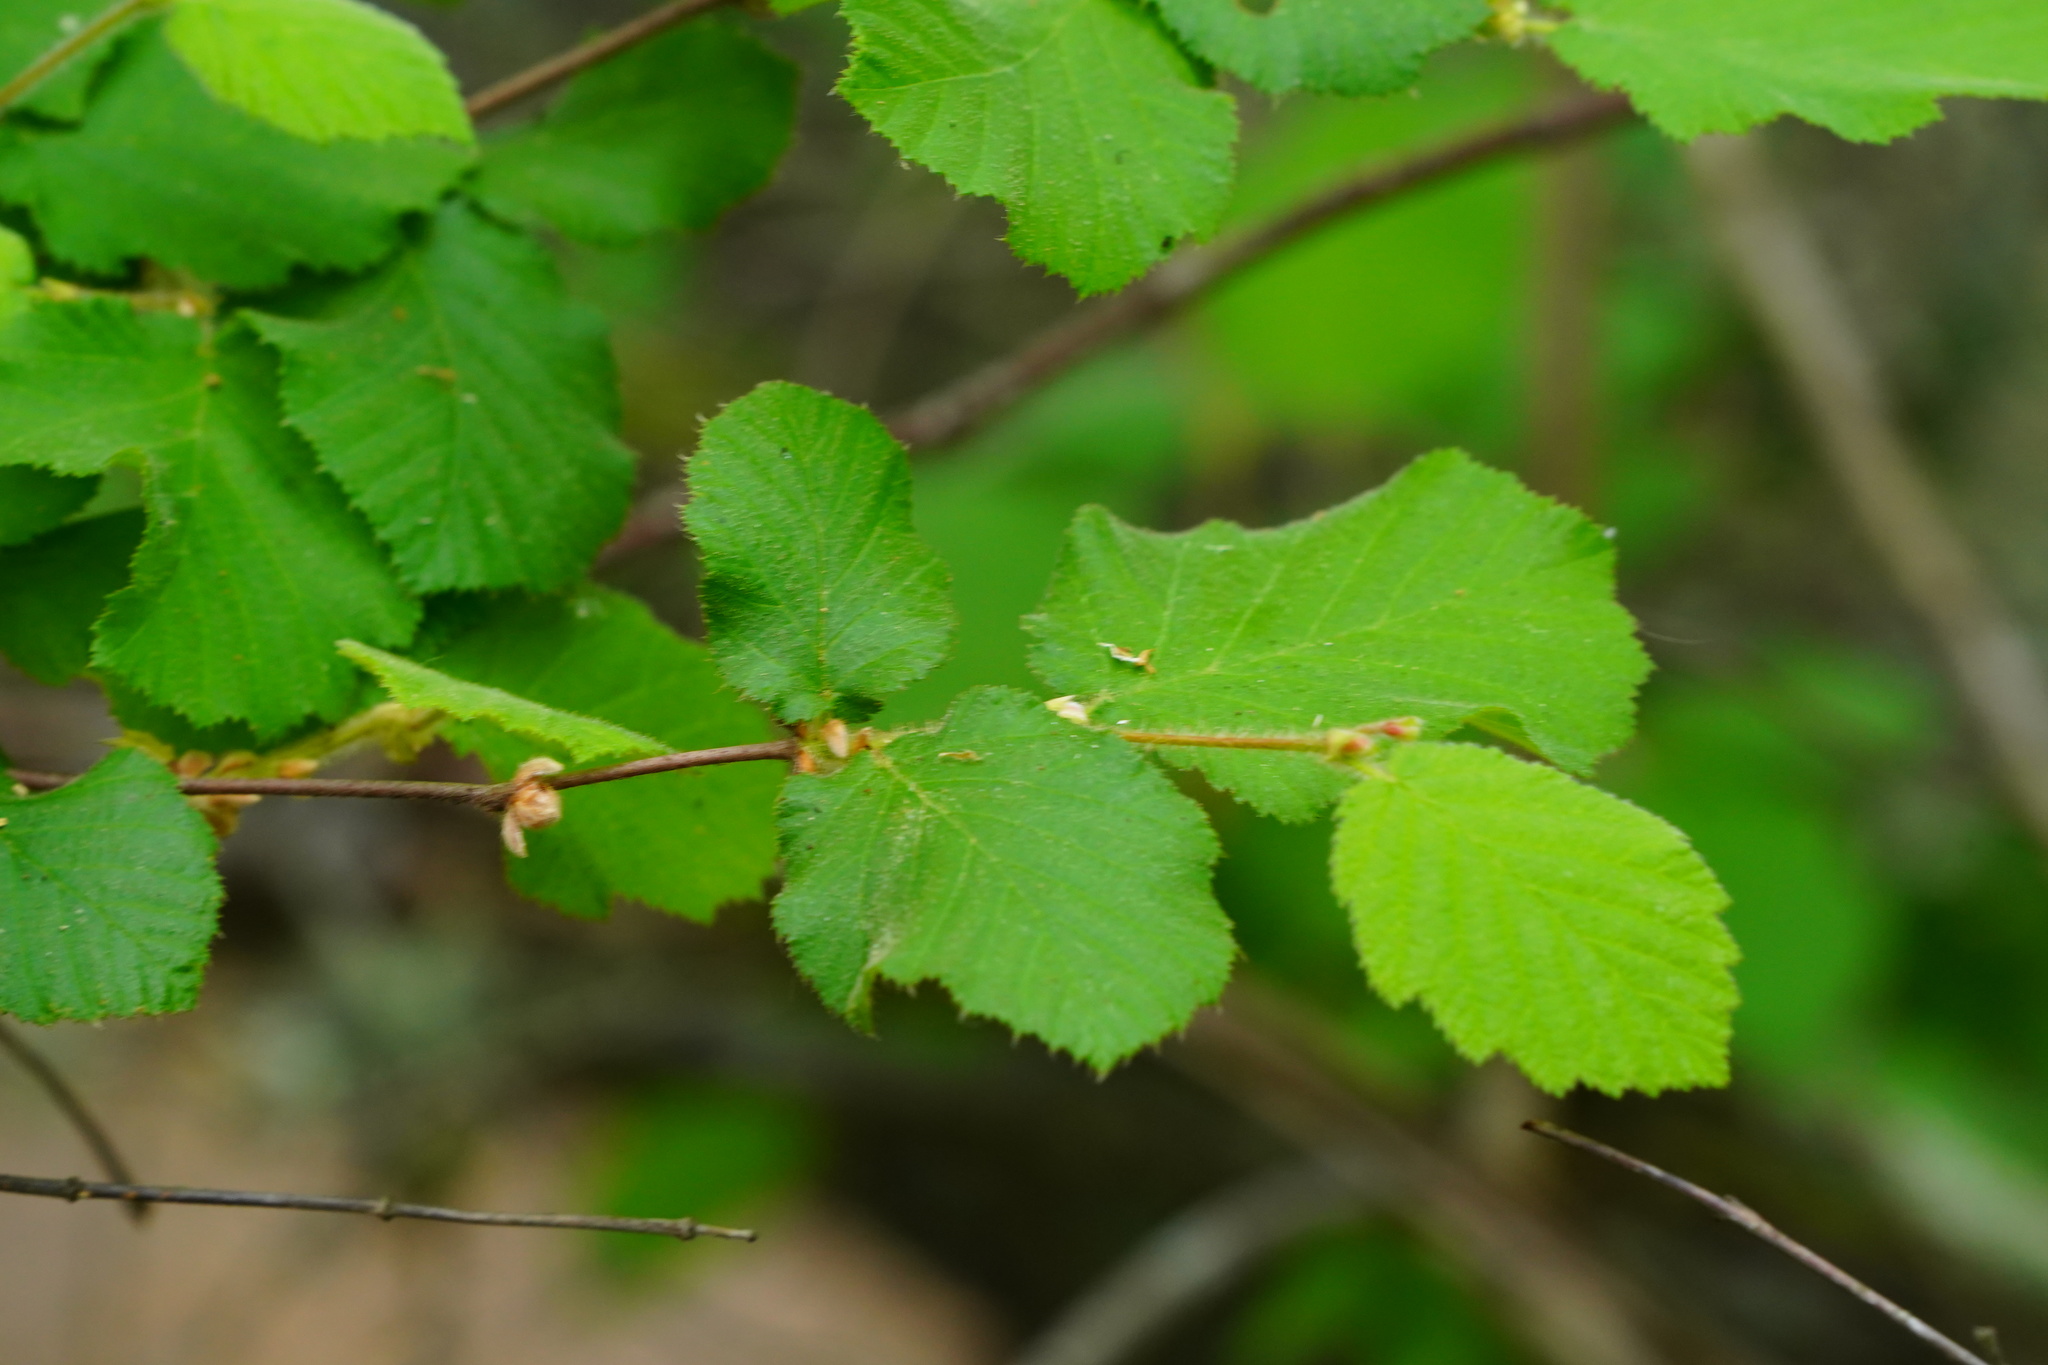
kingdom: Plantae
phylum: Tracheophyta
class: Magnoliopsida
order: Fagales
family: Betulaceae
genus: Corylus
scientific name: Corylus cornuta
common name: Beaked hazel
